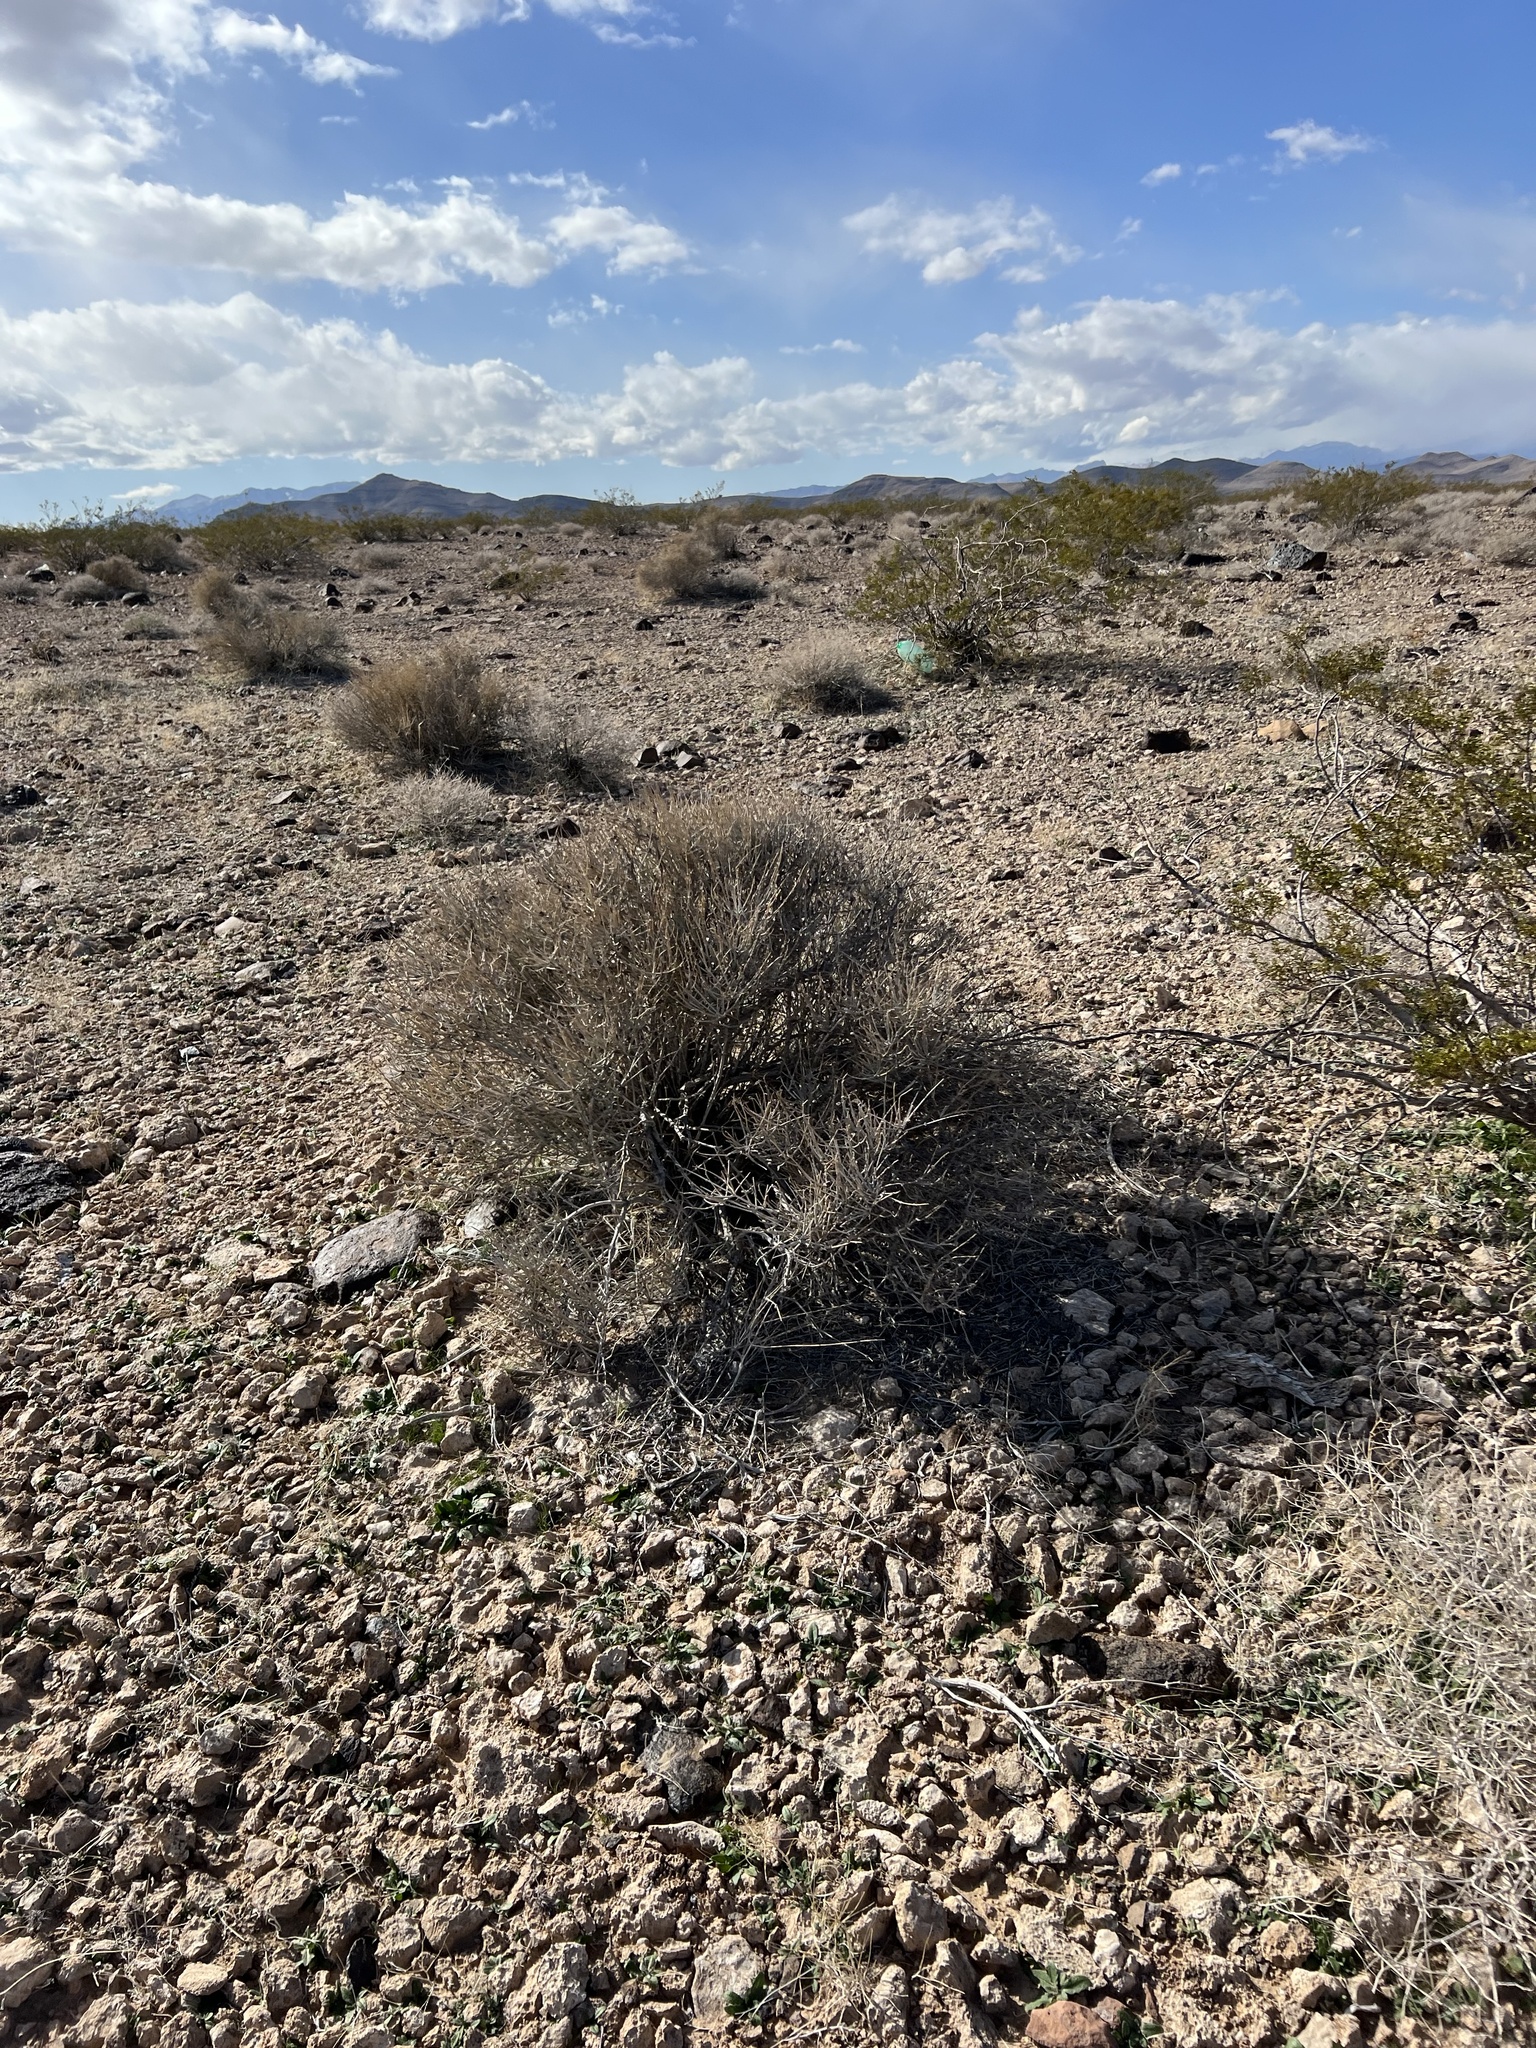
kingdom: Plantae
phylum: Tracheophyta
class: Gnetopsida
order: Ephedrales
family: Ephedraceae
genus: Ephedra
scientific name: Ephedra nevadensis
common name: Gray ephedra
